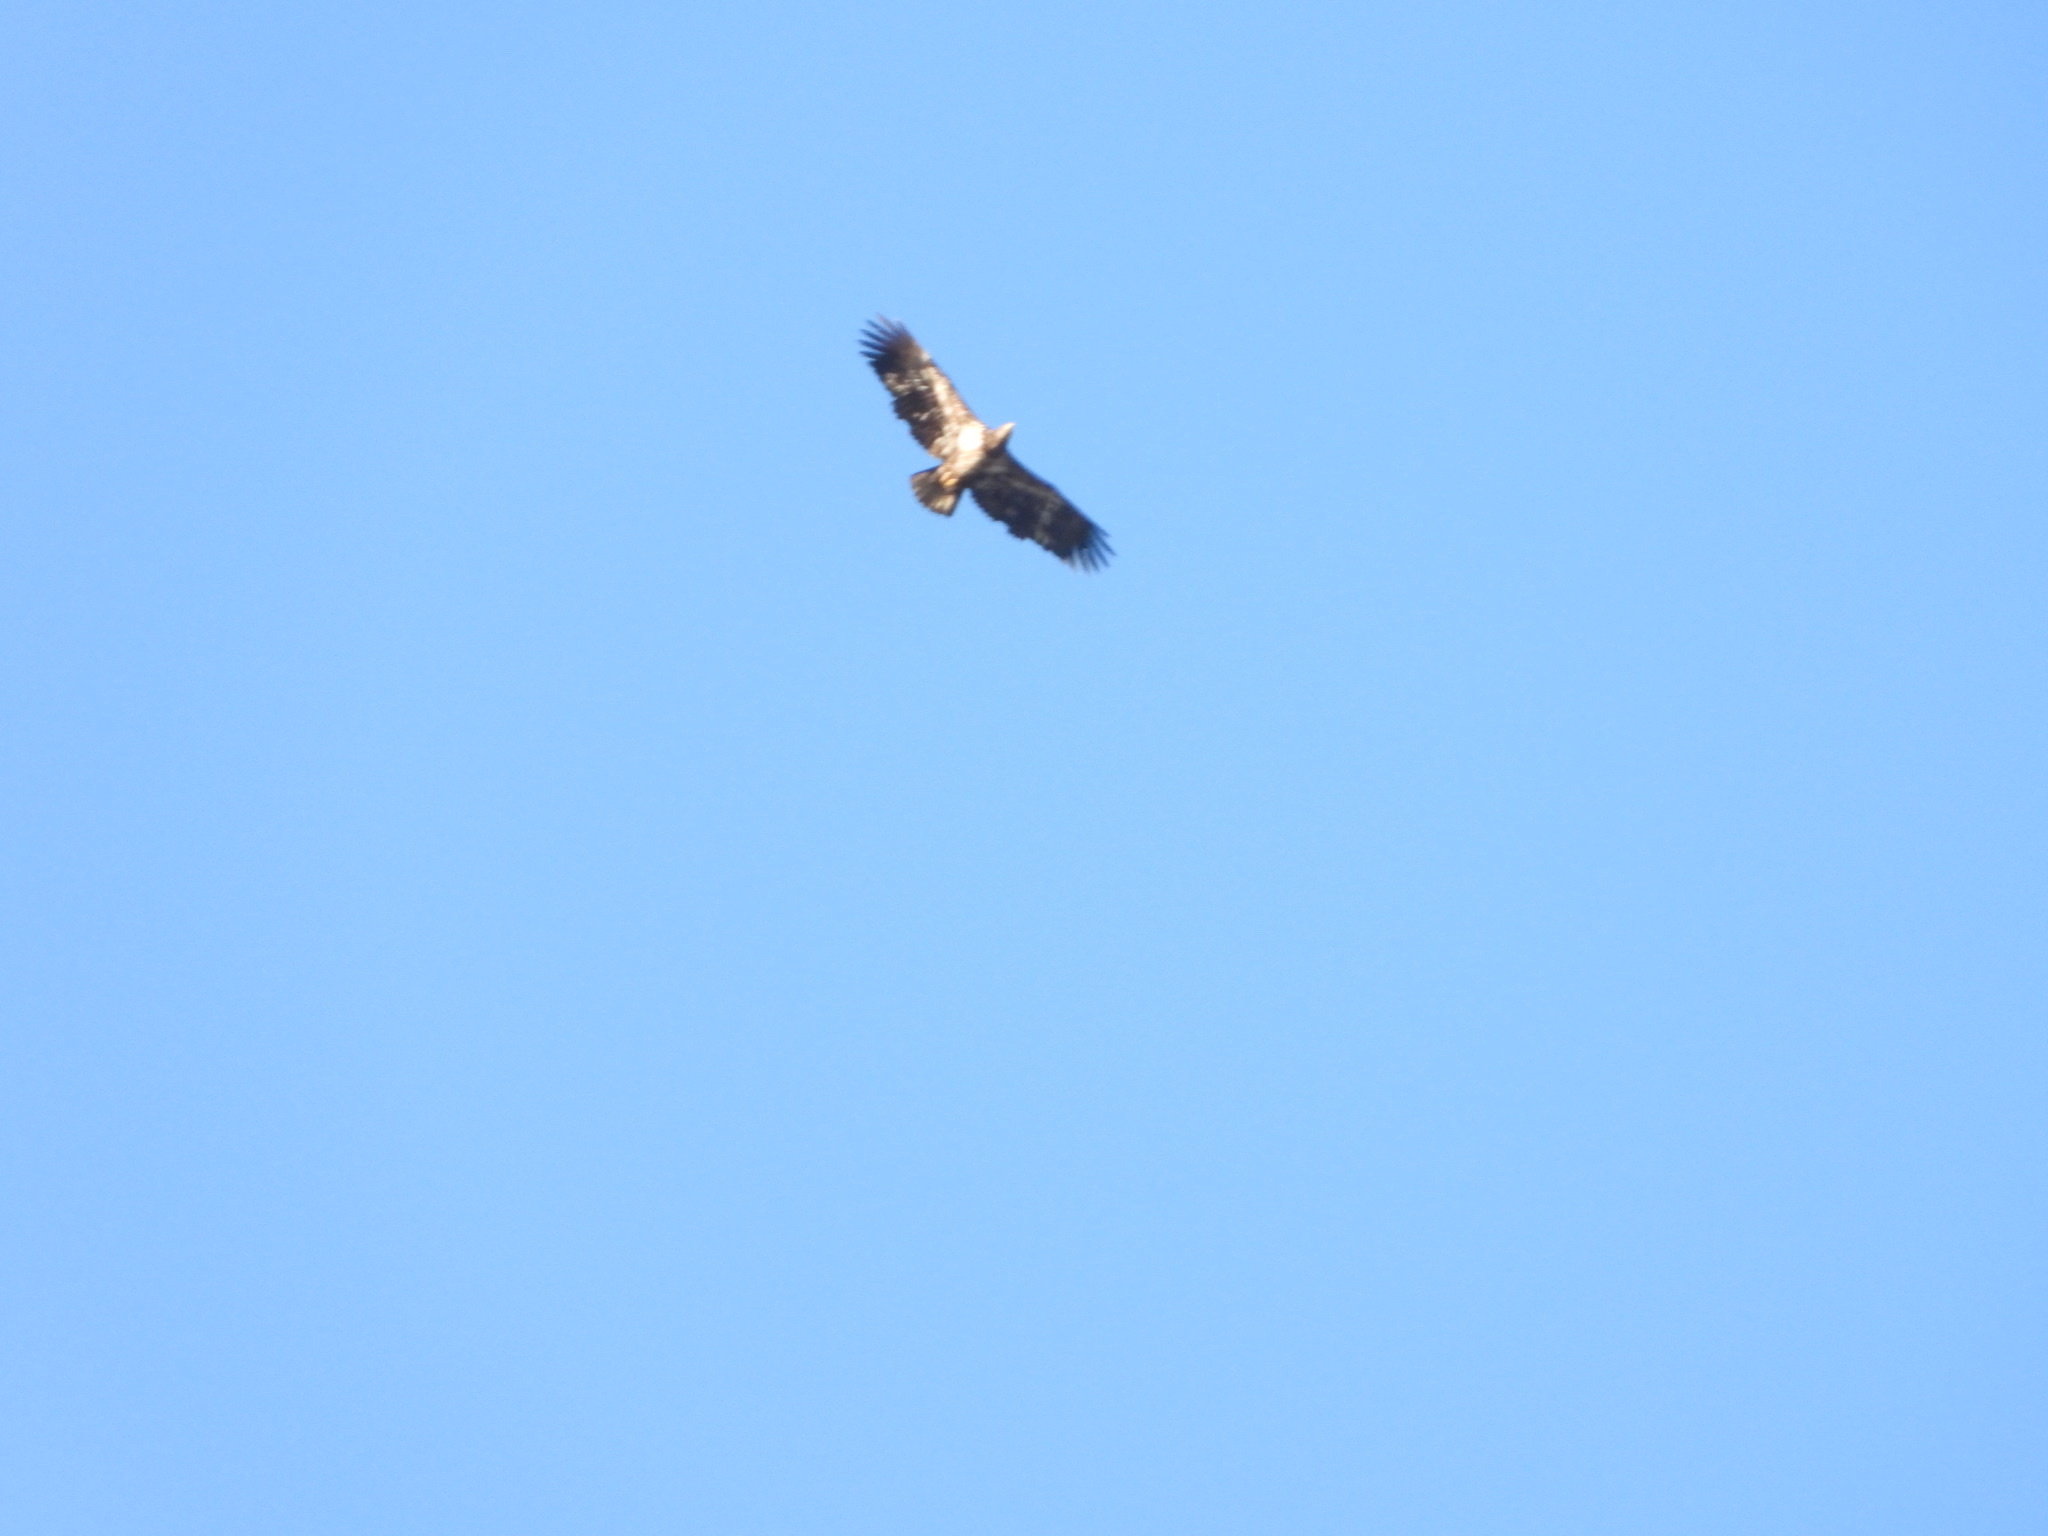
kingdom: Animalia
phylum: Chordata
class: Aves
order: Accipitriformes
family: Accipitridae
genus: Haliaeetus
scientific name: Haliaeetus leucocephalus
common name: Bald eagle
